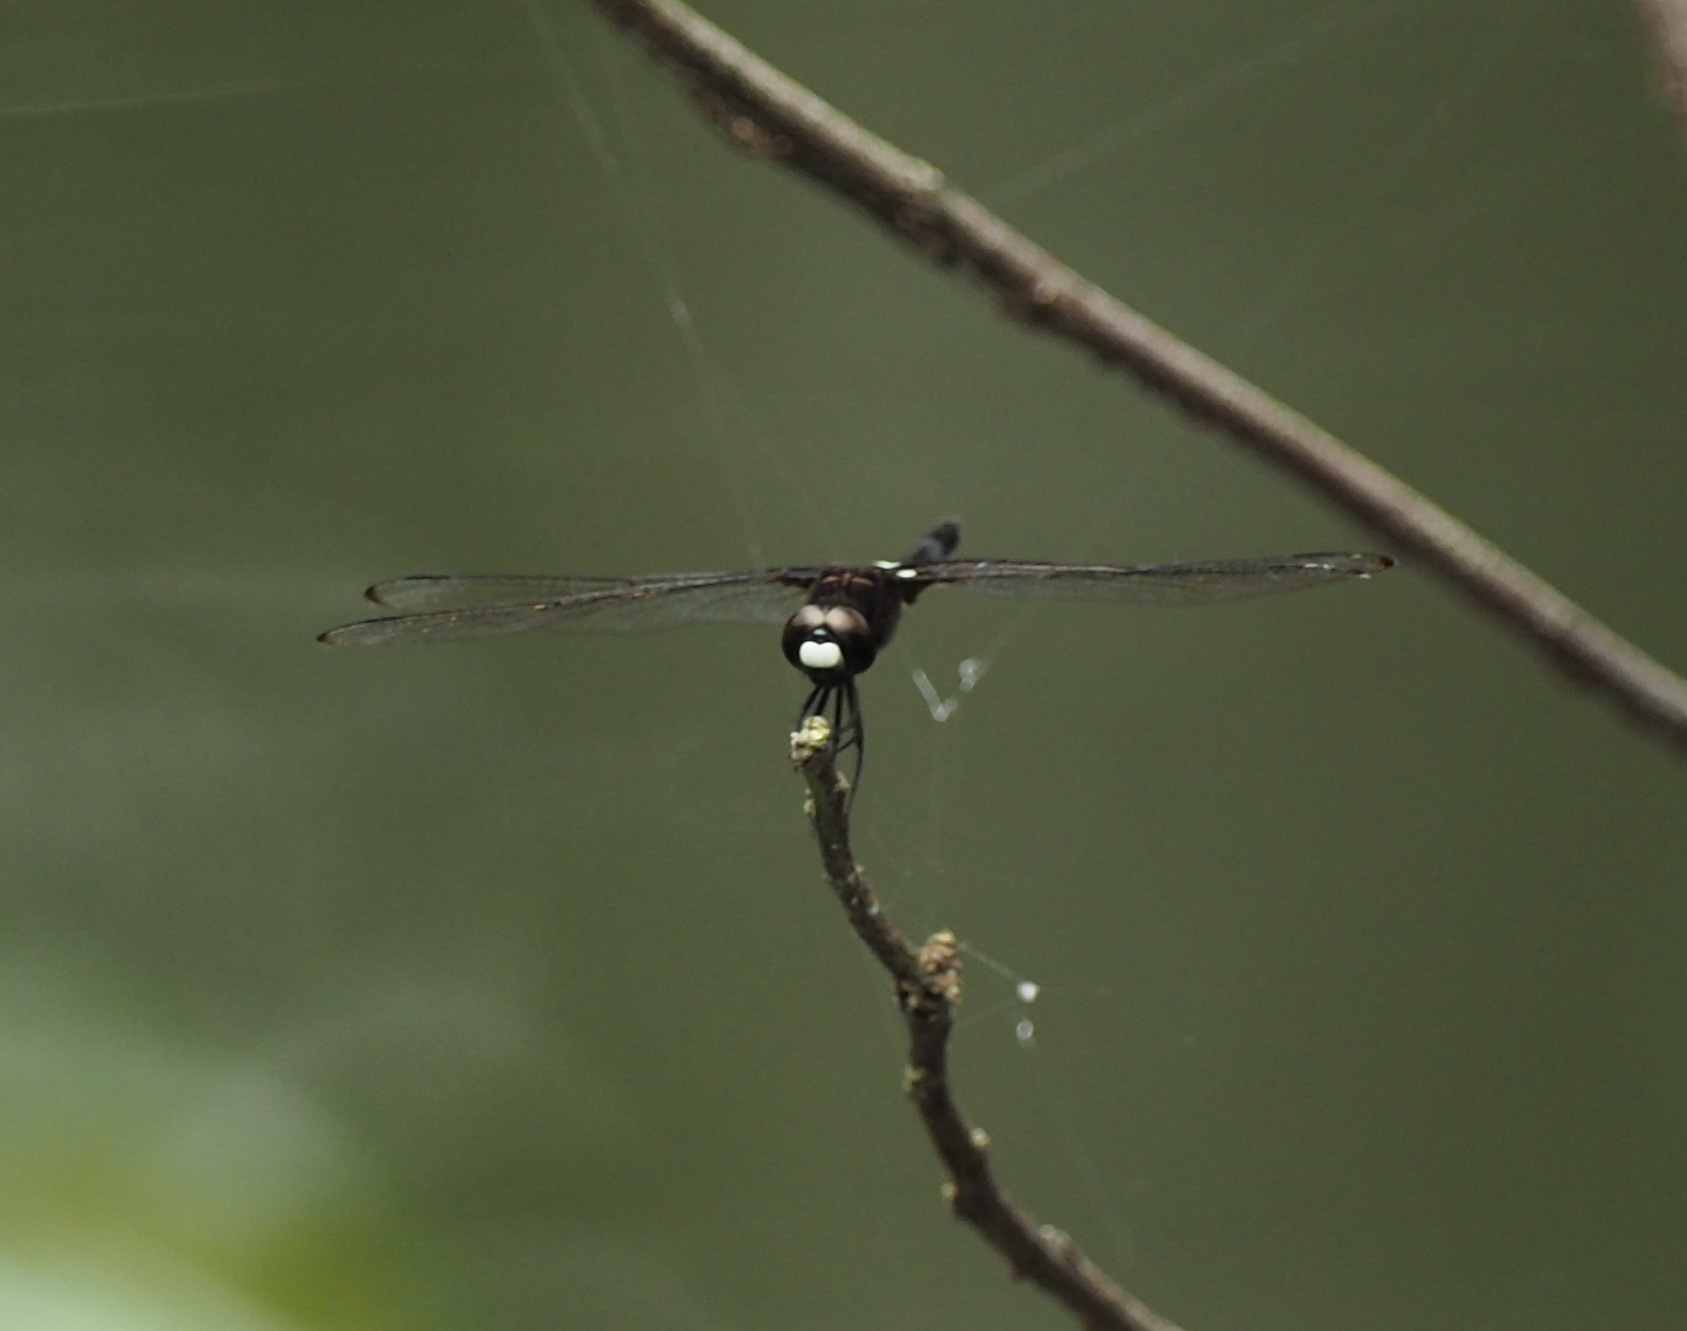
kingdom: Animalia
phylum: Arthropoda
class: Insecta
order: Odonata
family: Libellulidae
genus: Pseudothemis
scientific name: Pseudothemis zonata
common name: Pied skimmer
